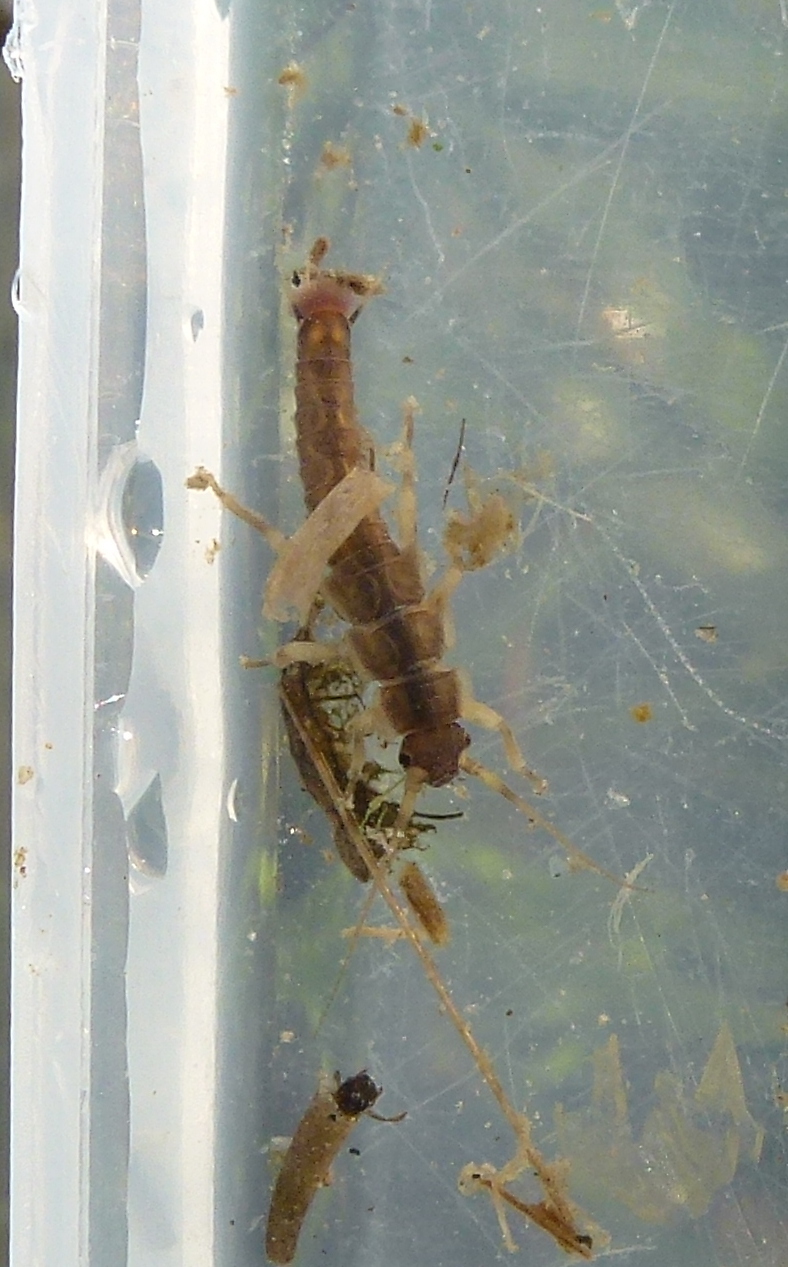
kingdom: Animalia
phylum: Arthropoda
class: Insecta
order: Plecoptera
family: Gripopterygidae
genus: Megaleptoperla
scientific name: Megaleptoperla diminuta
